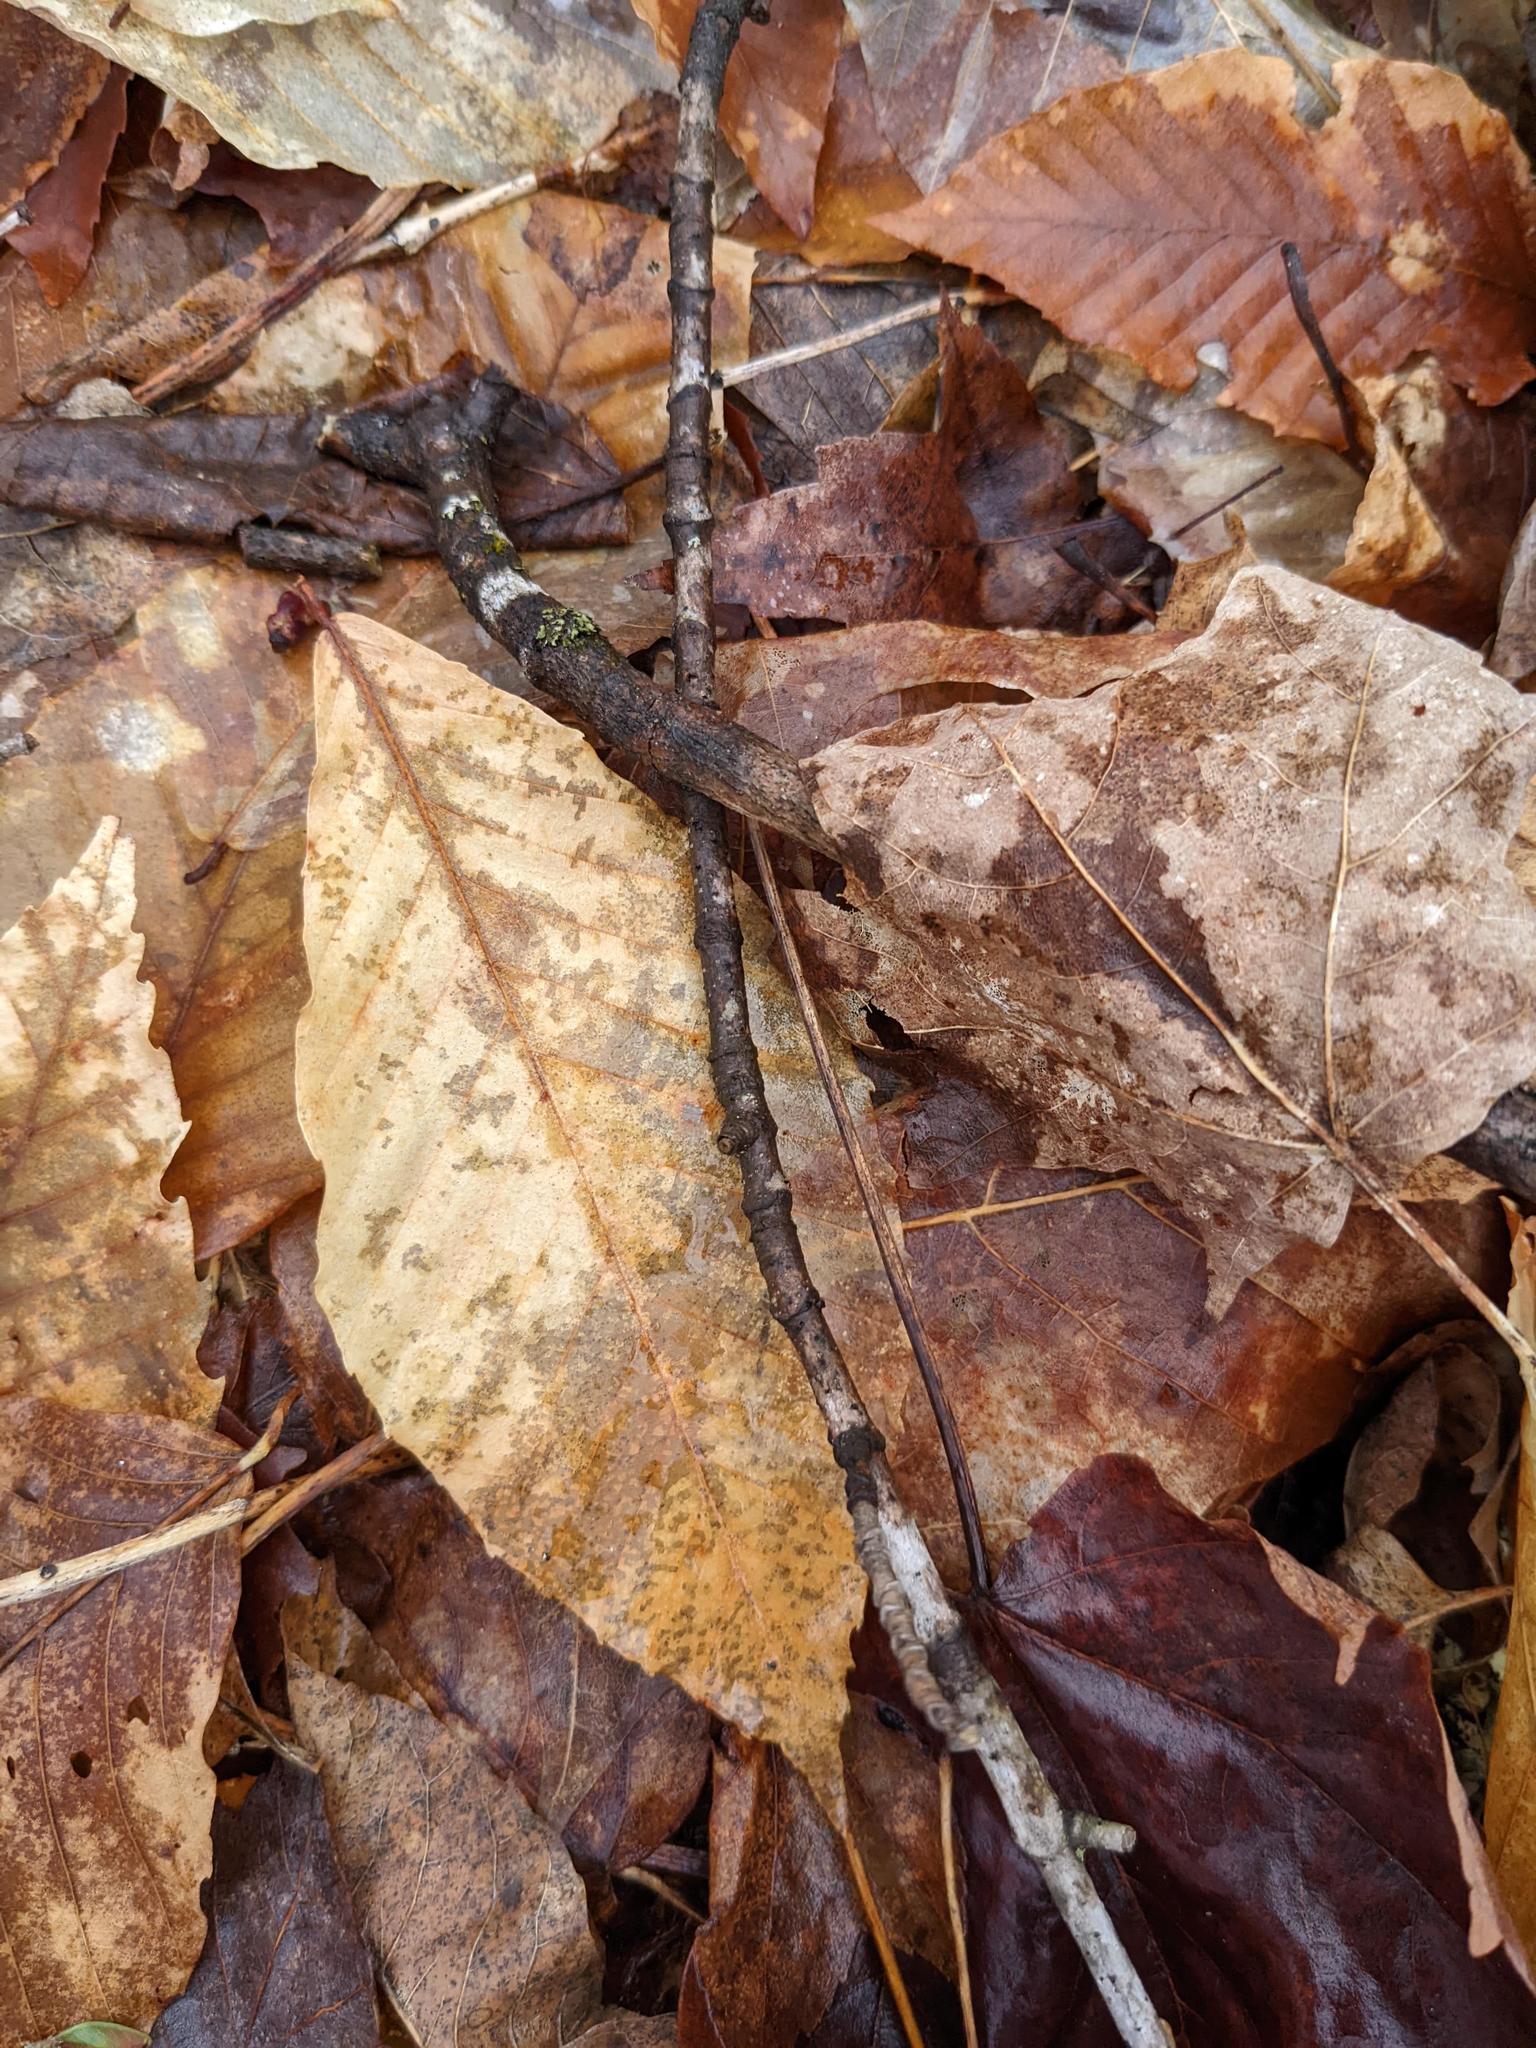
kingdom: Plantae
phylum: Tracheophyta
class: Magnoliopsida
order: Fagales
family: Fagaceae
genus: Fagus
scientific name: Fagus grandifolia
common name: American beech
